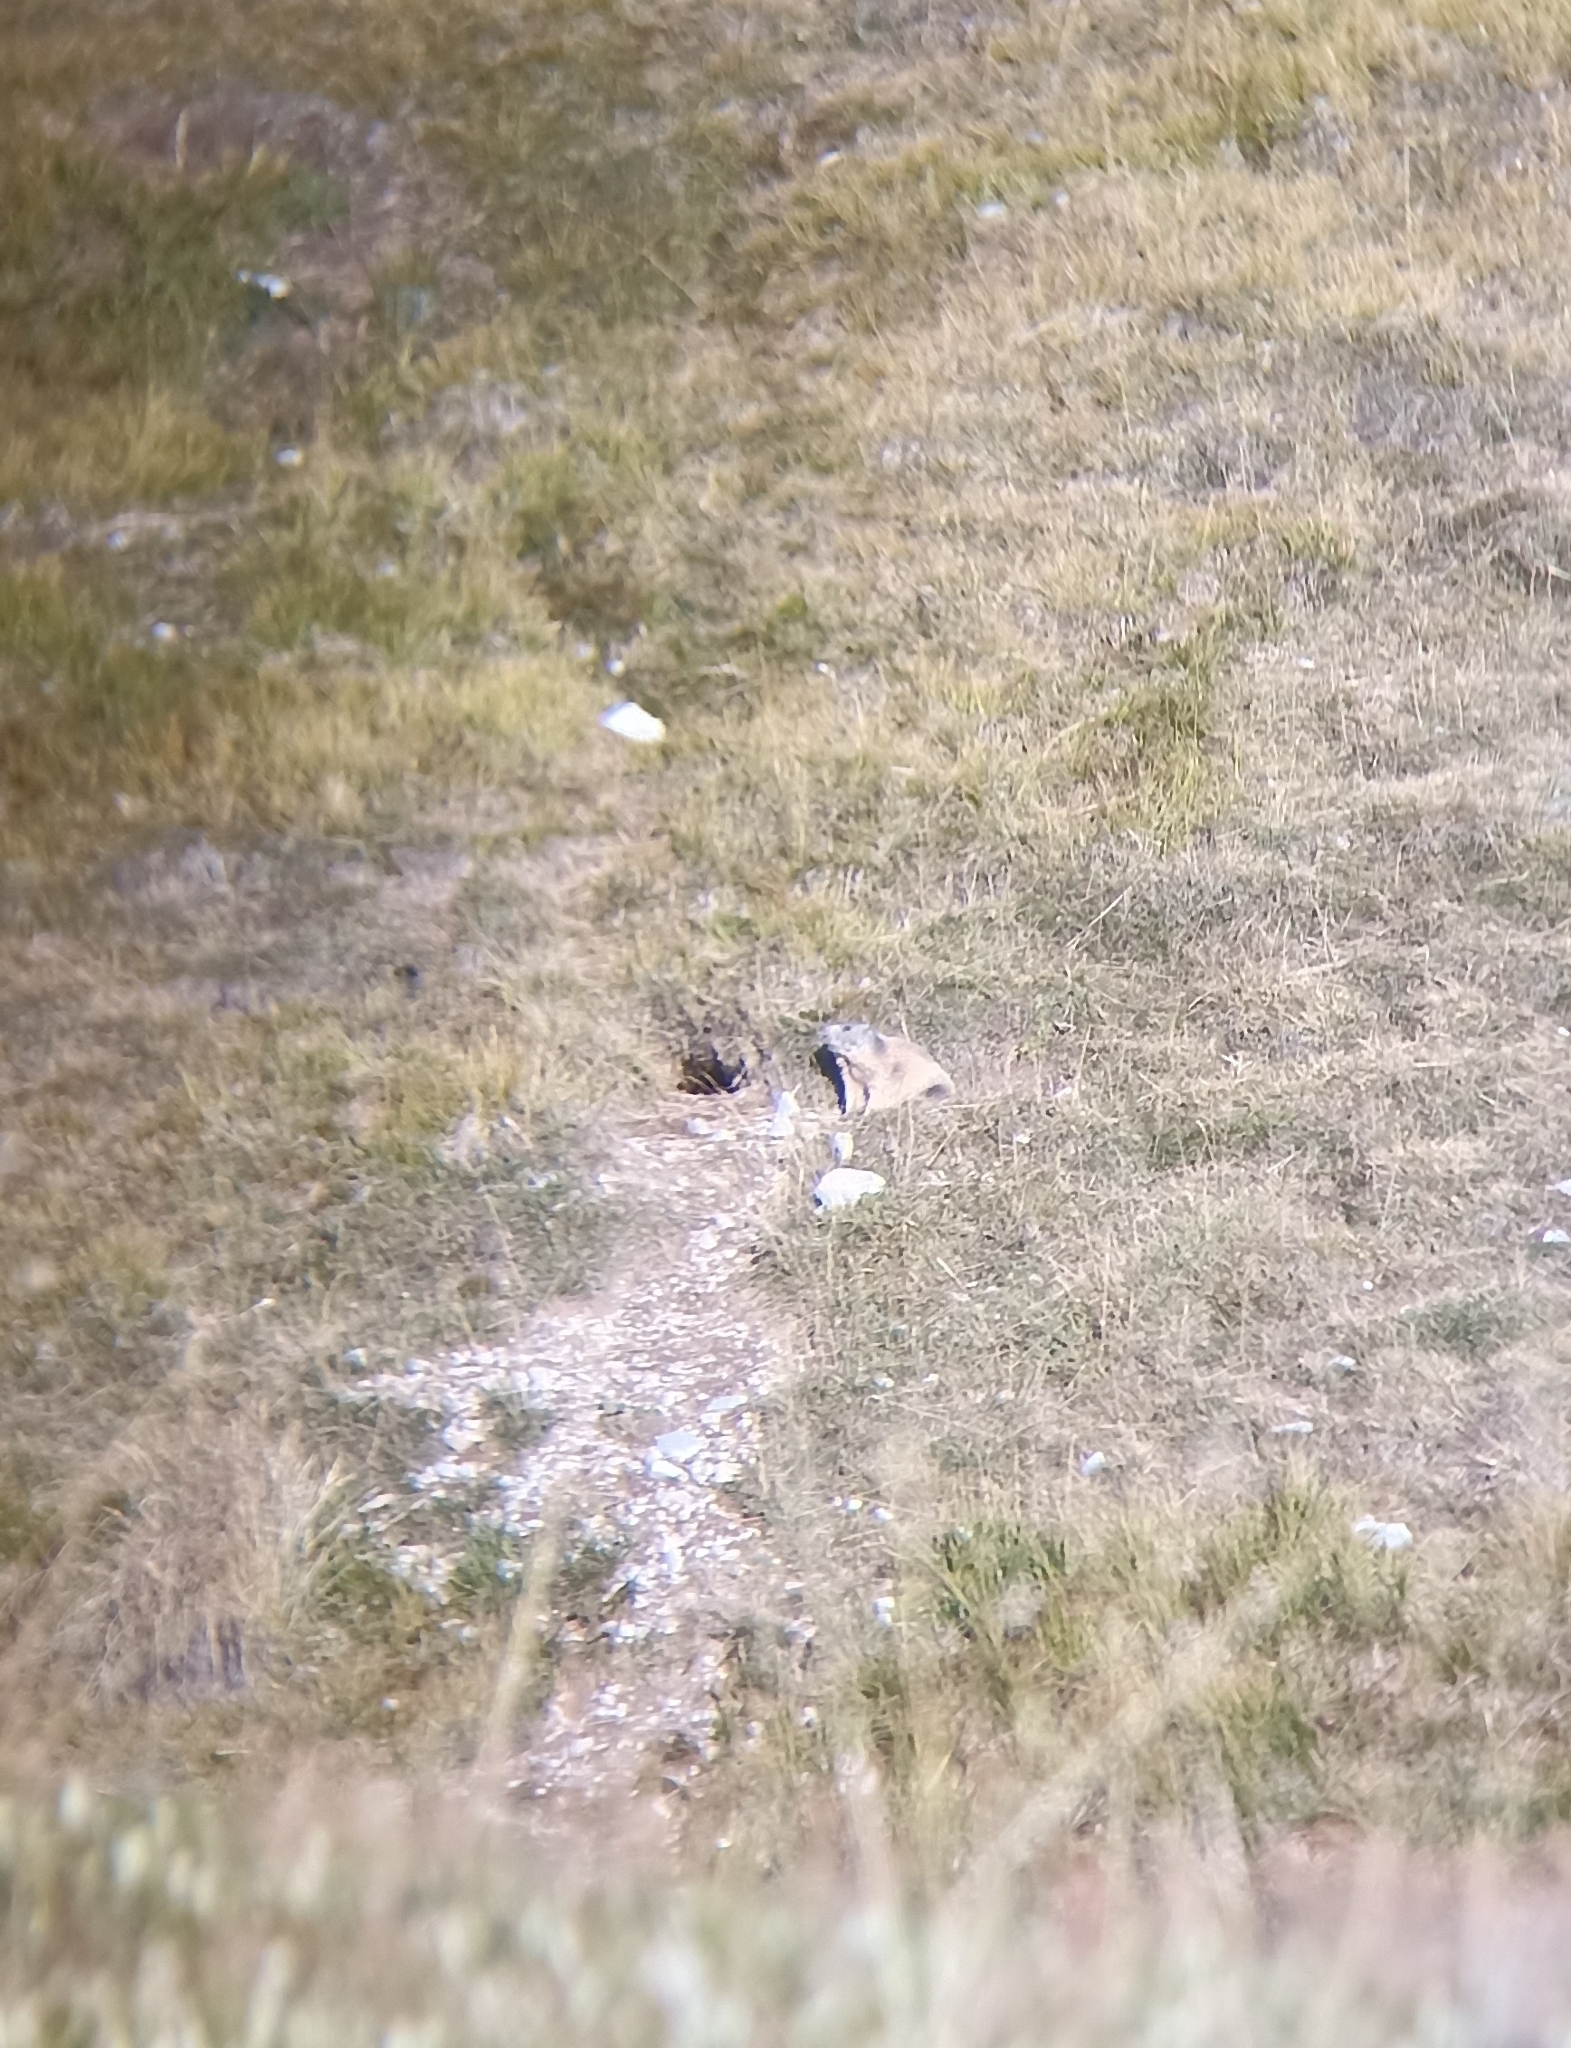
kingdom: Animalia
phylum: Chordata
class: Mammalia
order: Rodentia
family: Sciuridae
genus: Marmota
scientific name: Marmota marmota
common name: Alpine marmot
